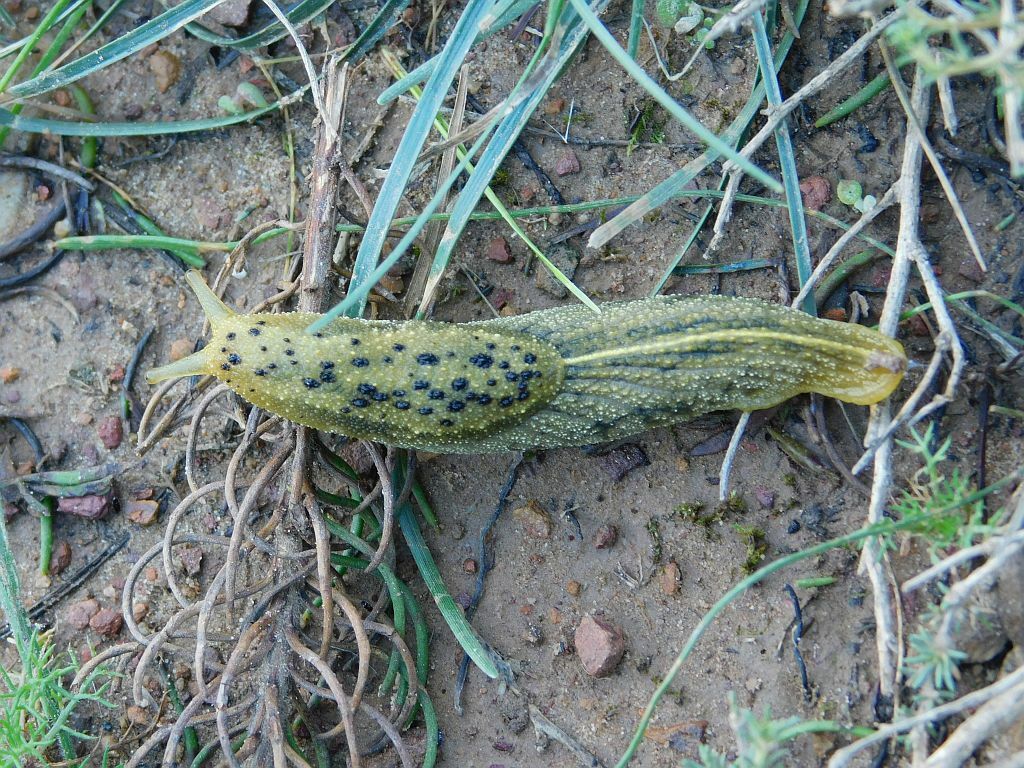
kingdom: Animalia
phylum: Mollusca
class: Gastropoda
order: Stylommatophora
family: Oopeltidae
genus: Oopelta
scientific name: Oopelta nigropunctata
